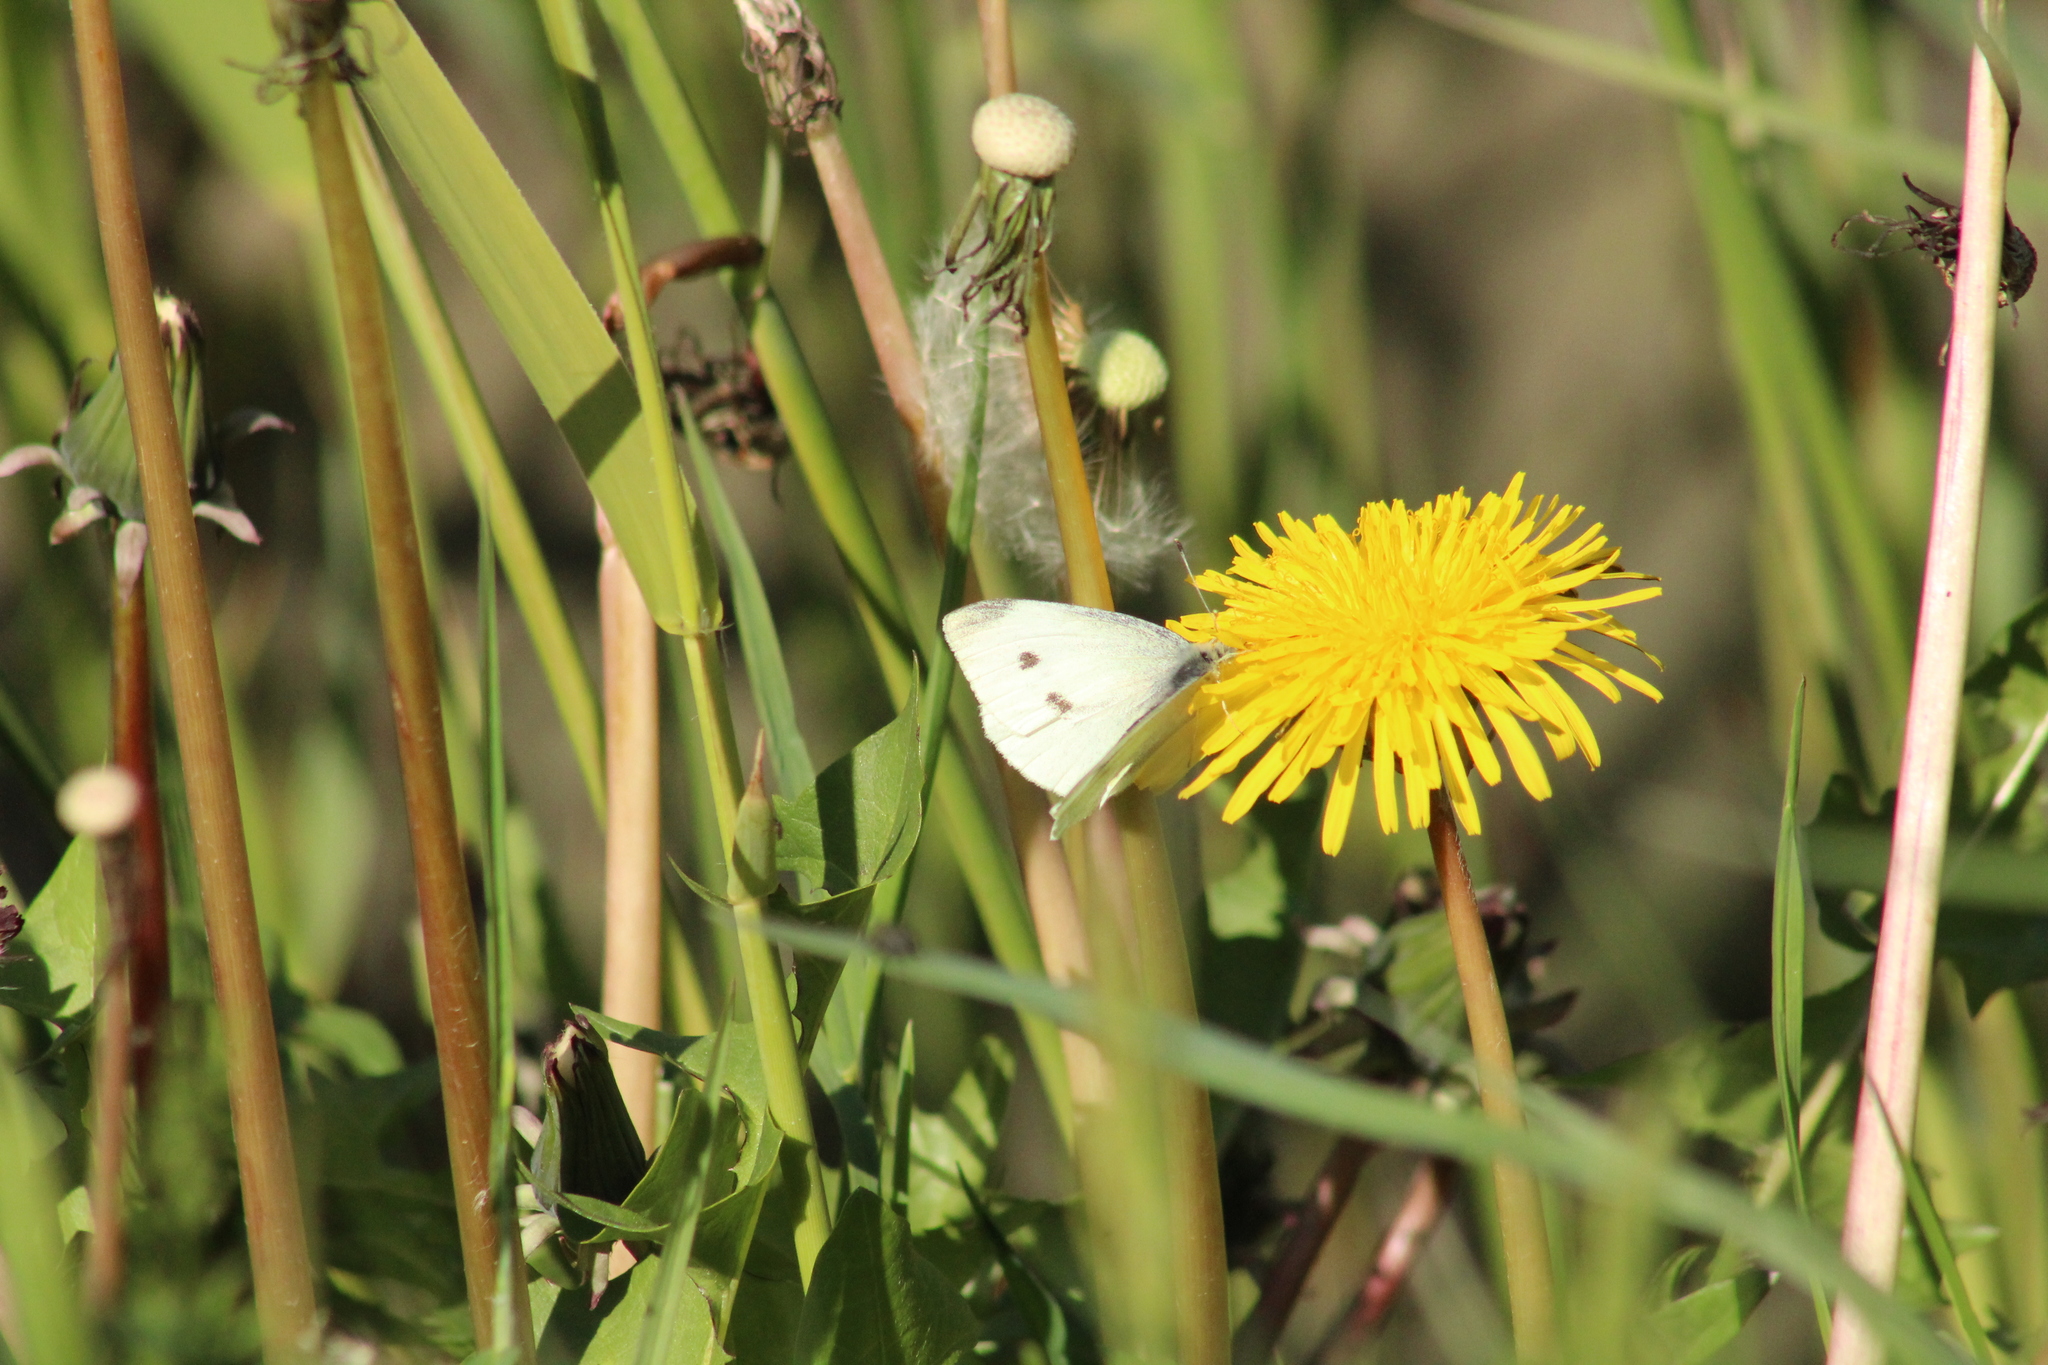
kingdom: Animalia
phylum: Arthropoda
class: Insecta
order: Lepidoptera
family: Pieridae
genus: Pieris
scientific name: Pieris rapae
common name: Small white
